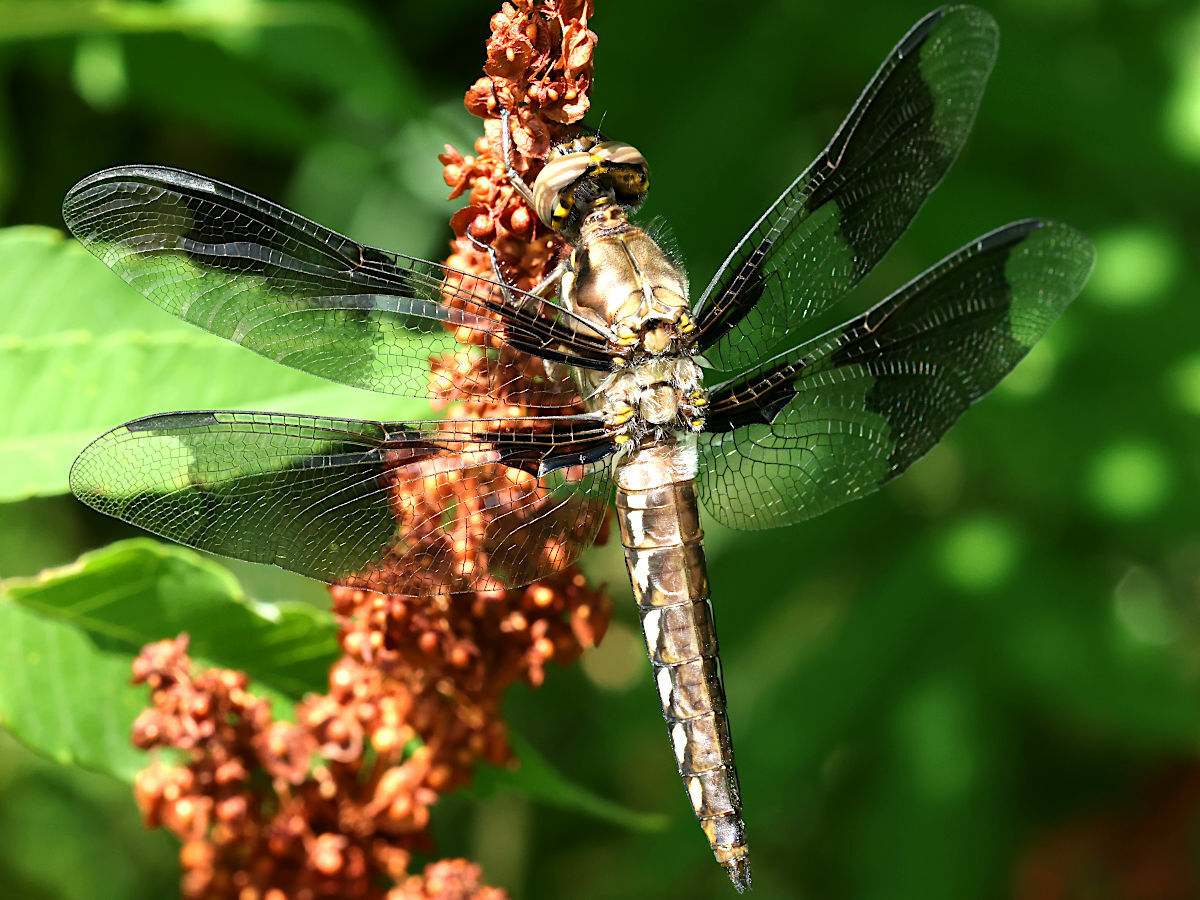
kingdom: Animalia
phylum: Arthropoda
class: Insecta
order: Odonata
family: Libellulidae
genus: Plathemis
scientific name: Plathemis lydia
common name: Common whitetail
